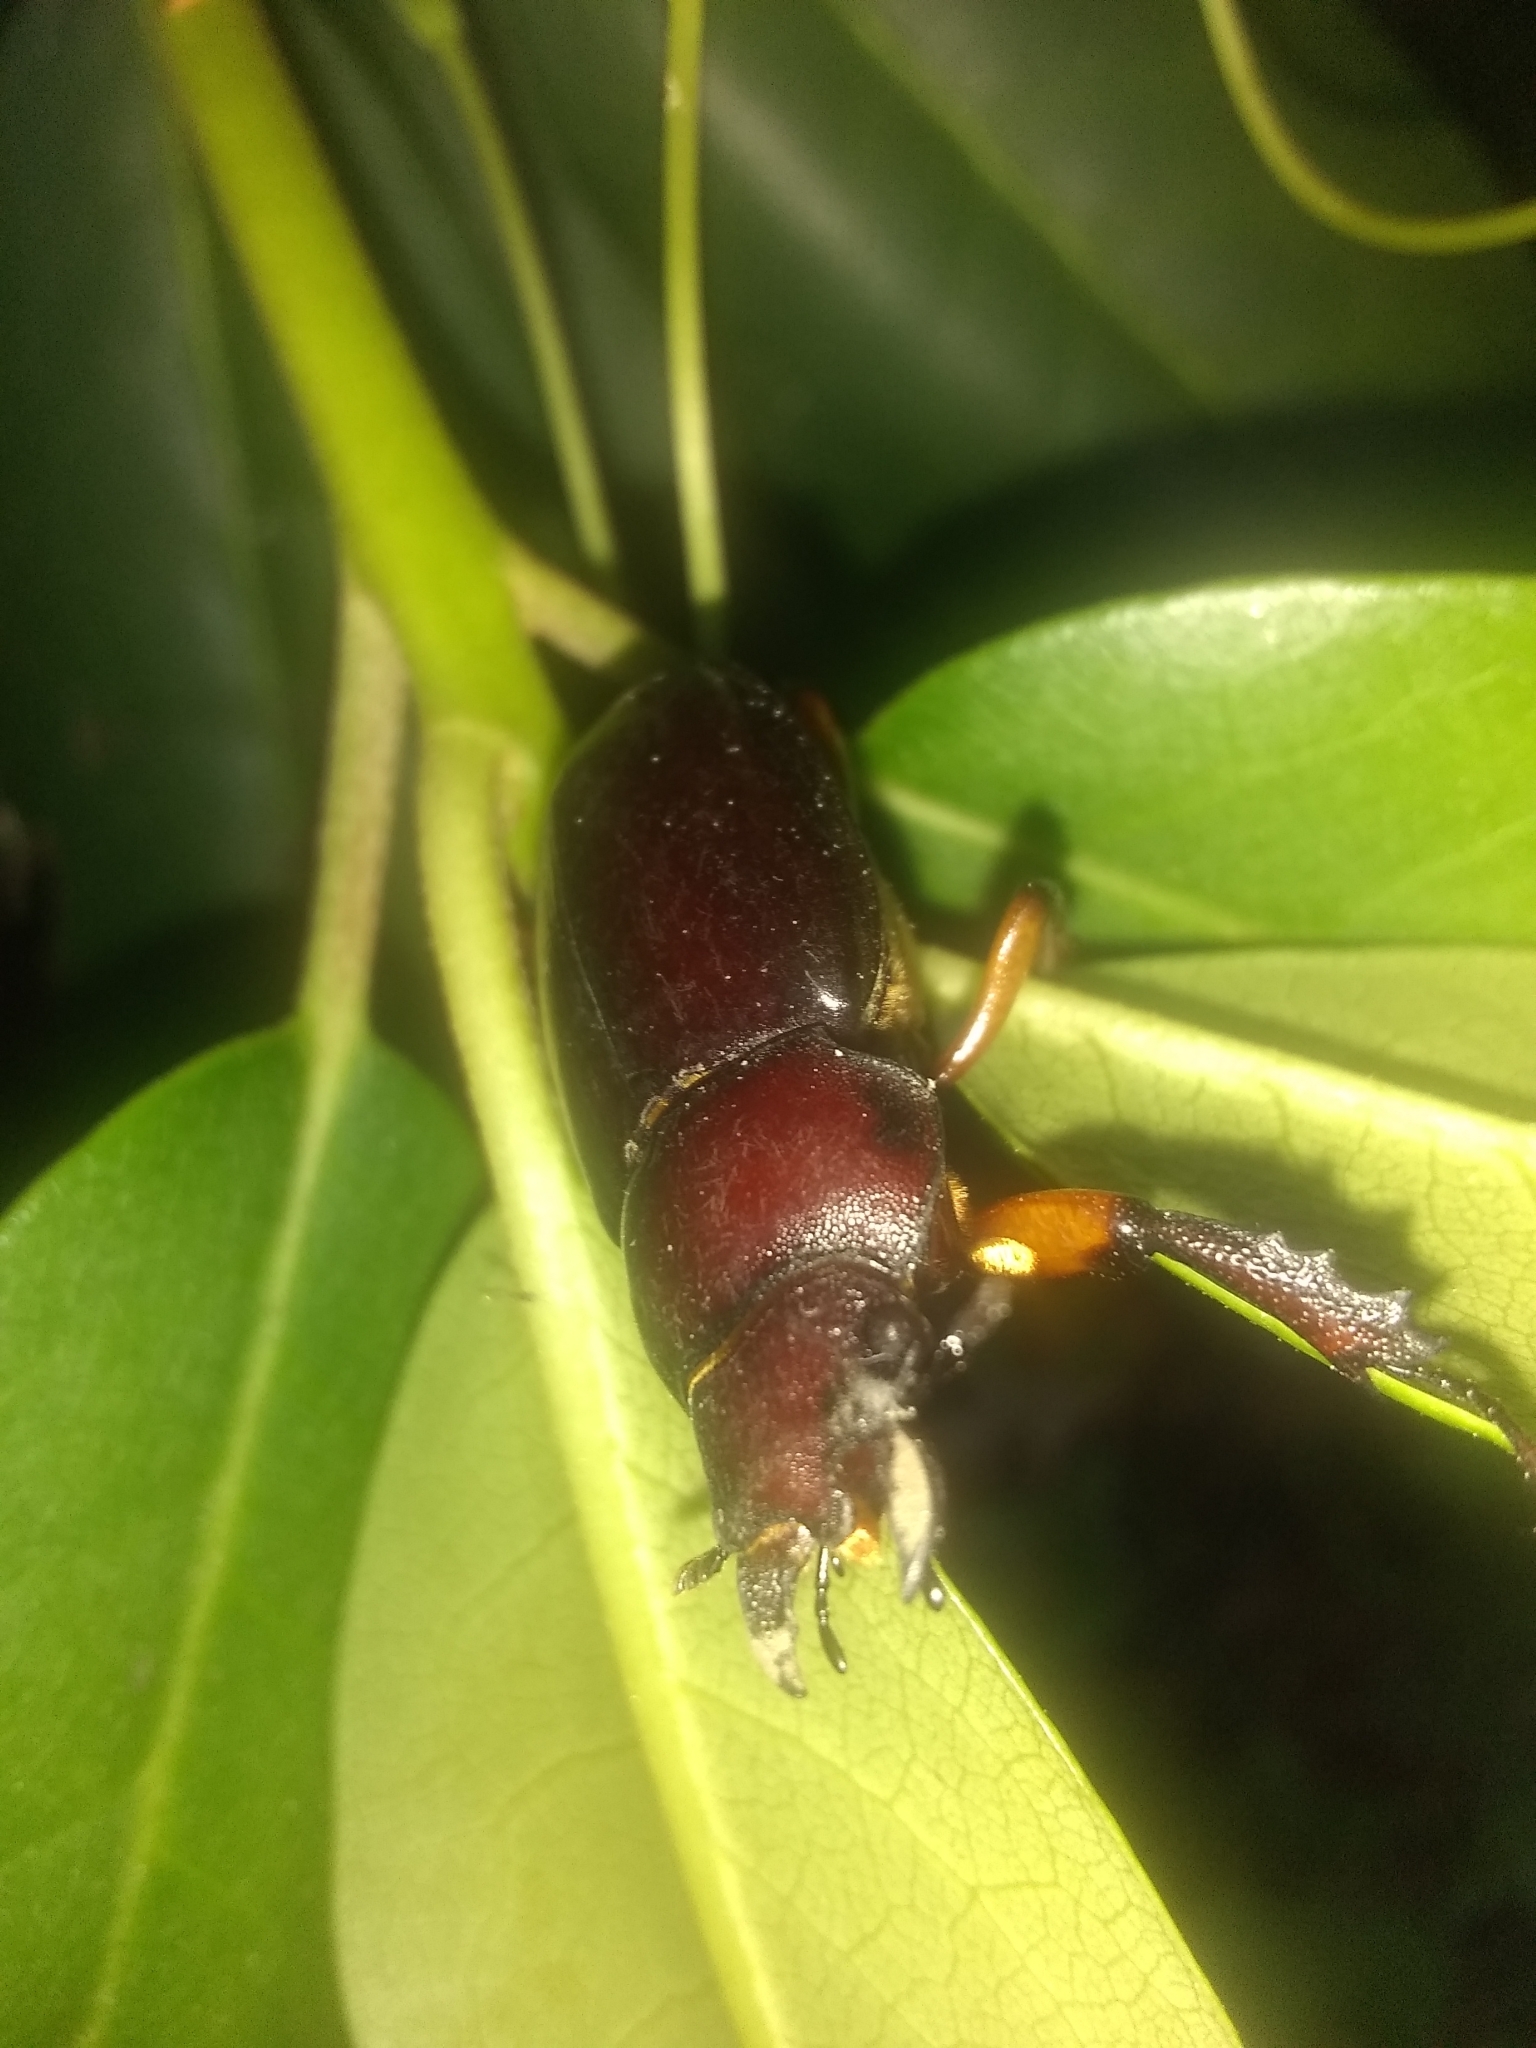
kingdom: Animalia
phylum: Arthropoda
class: Insecta
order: Coleoptera
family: Lucanidae
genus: Lucanus
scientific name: Lucanus capreolus
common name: Stag beetle
